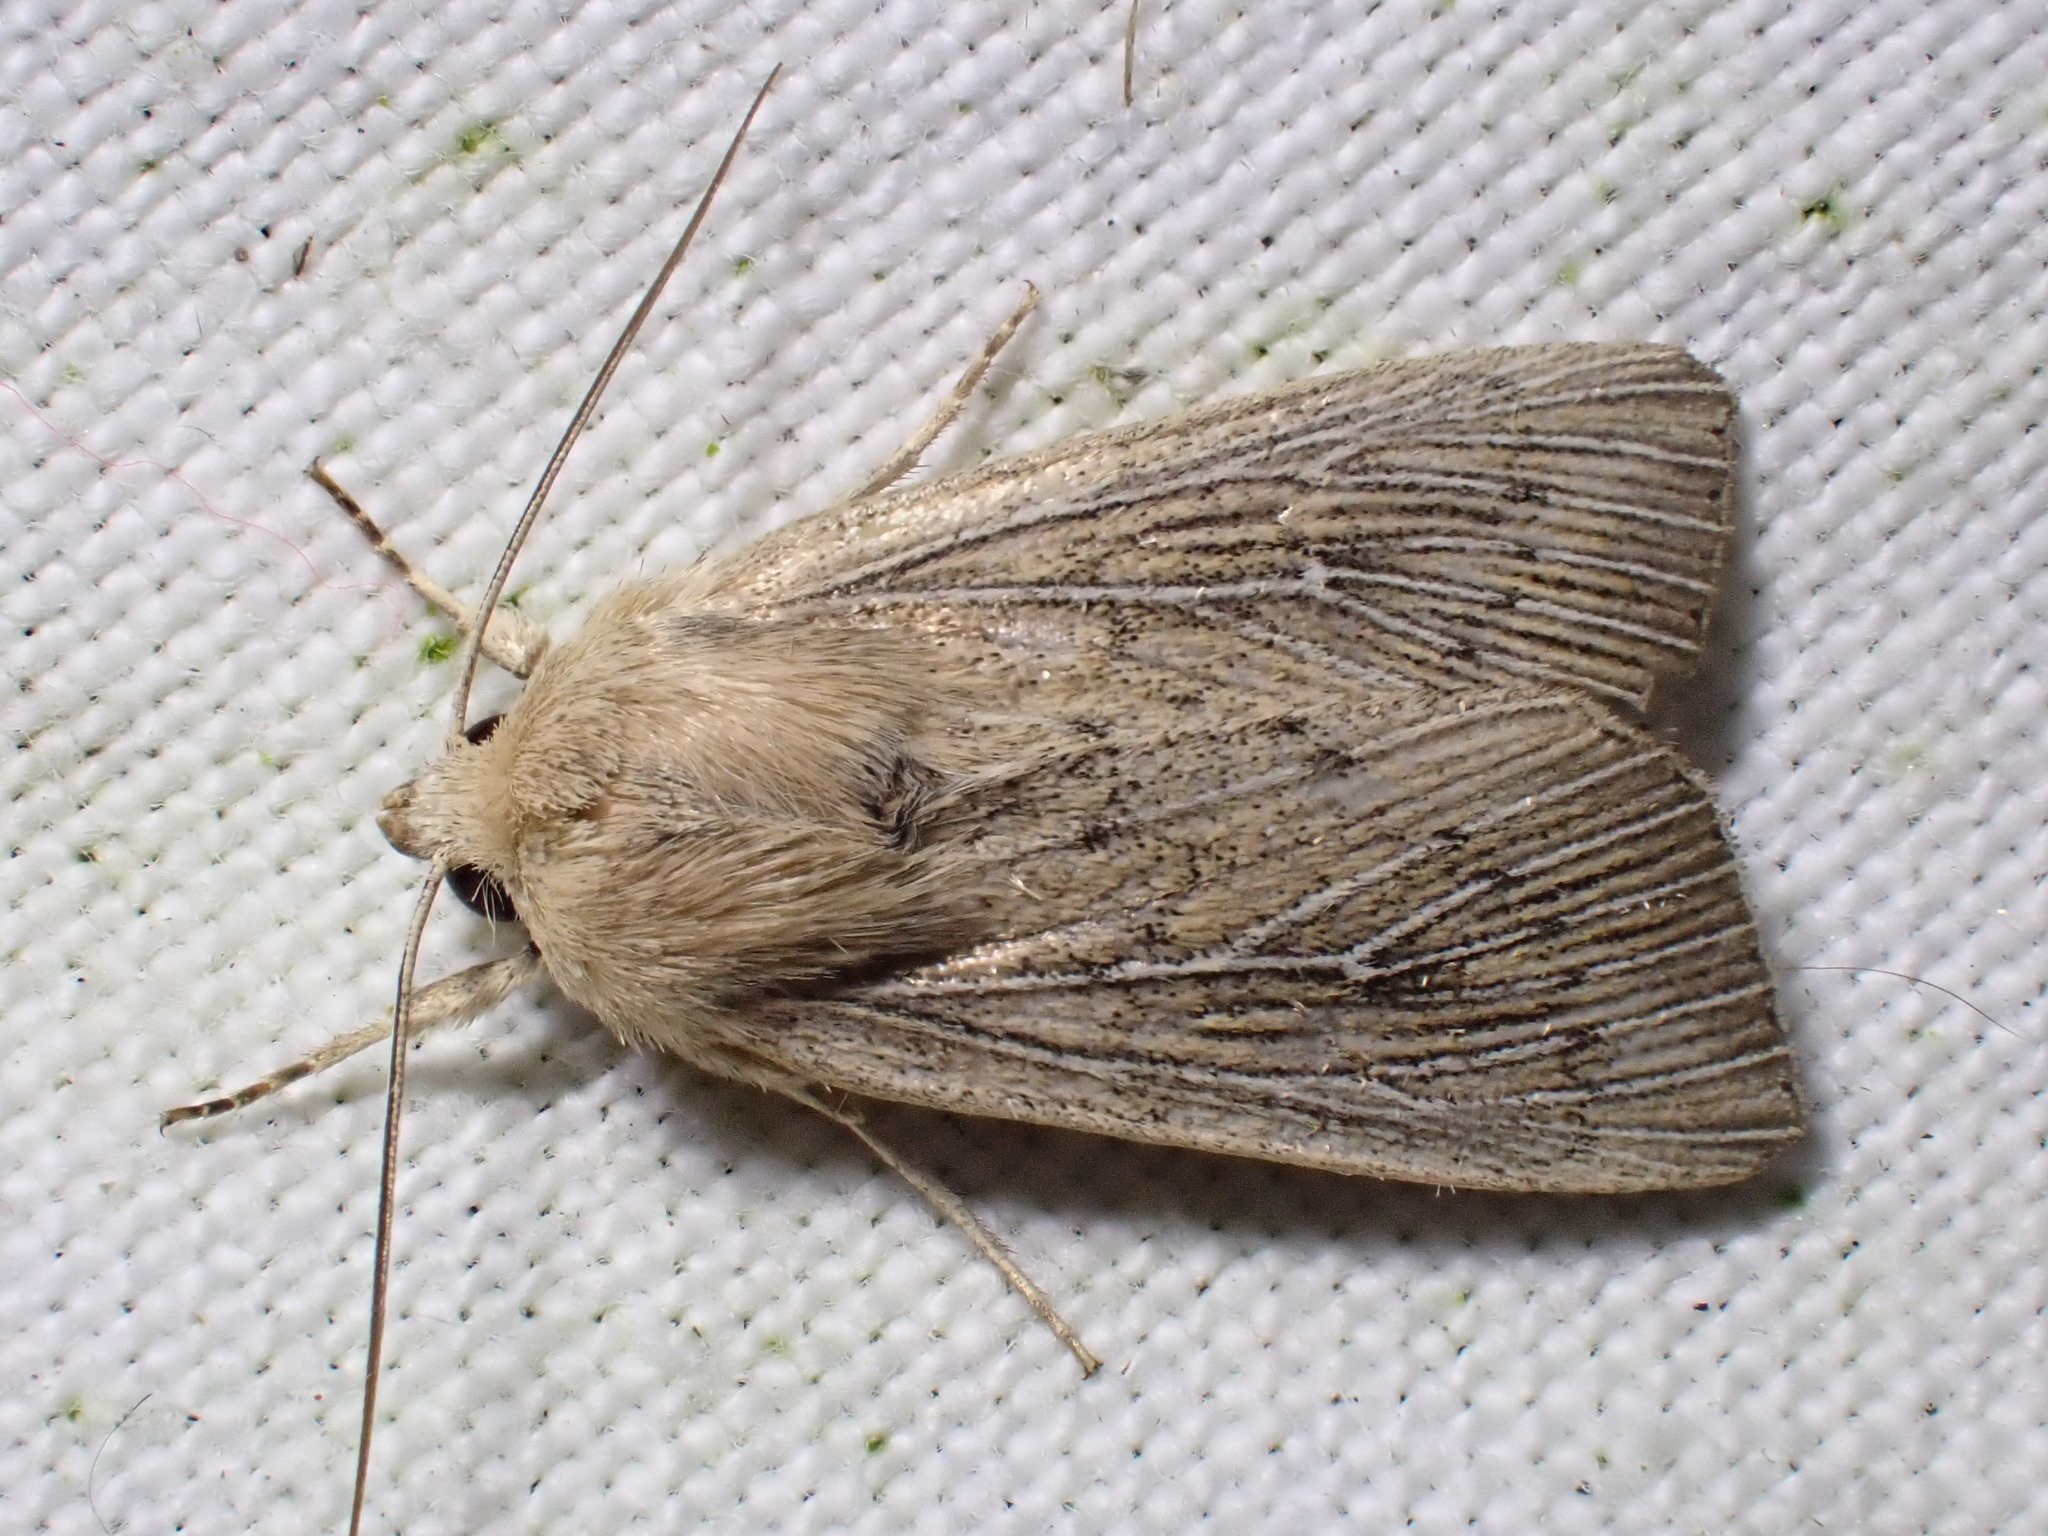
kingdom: Animalia
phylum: Arthropoda
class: Insecta
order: Lepidoptera
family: Noctuidae
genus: Leucania
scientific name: Leucania obsoleta
